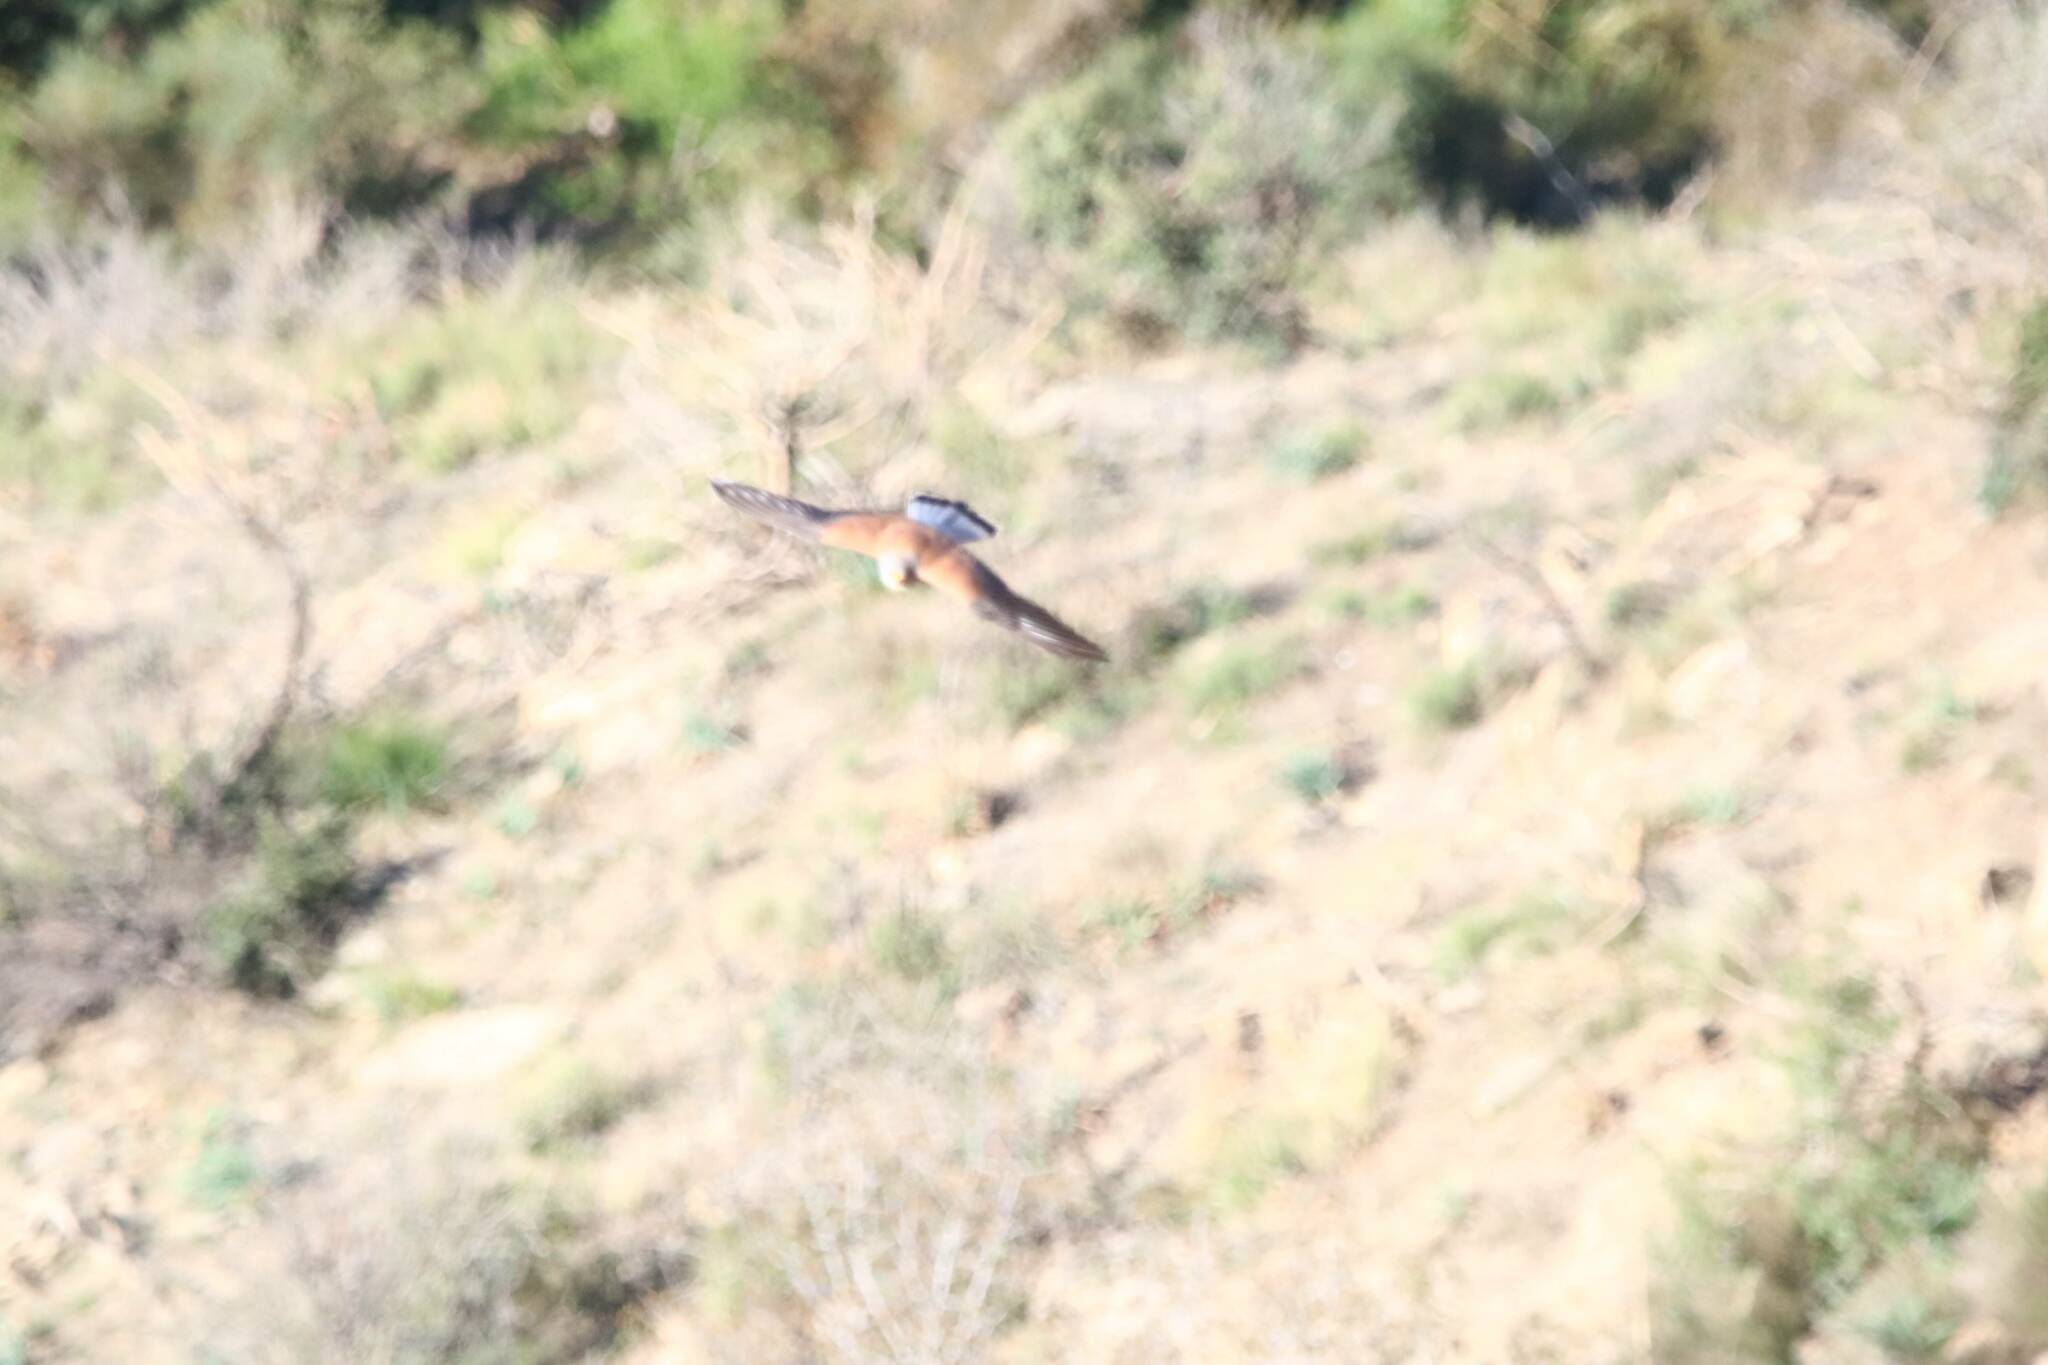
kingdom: Animalia
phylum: Chordata
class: Aves
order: Falconiformes
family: Falconidae
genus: Falco
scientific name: Falco naumanni
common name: Lesser kestrel
